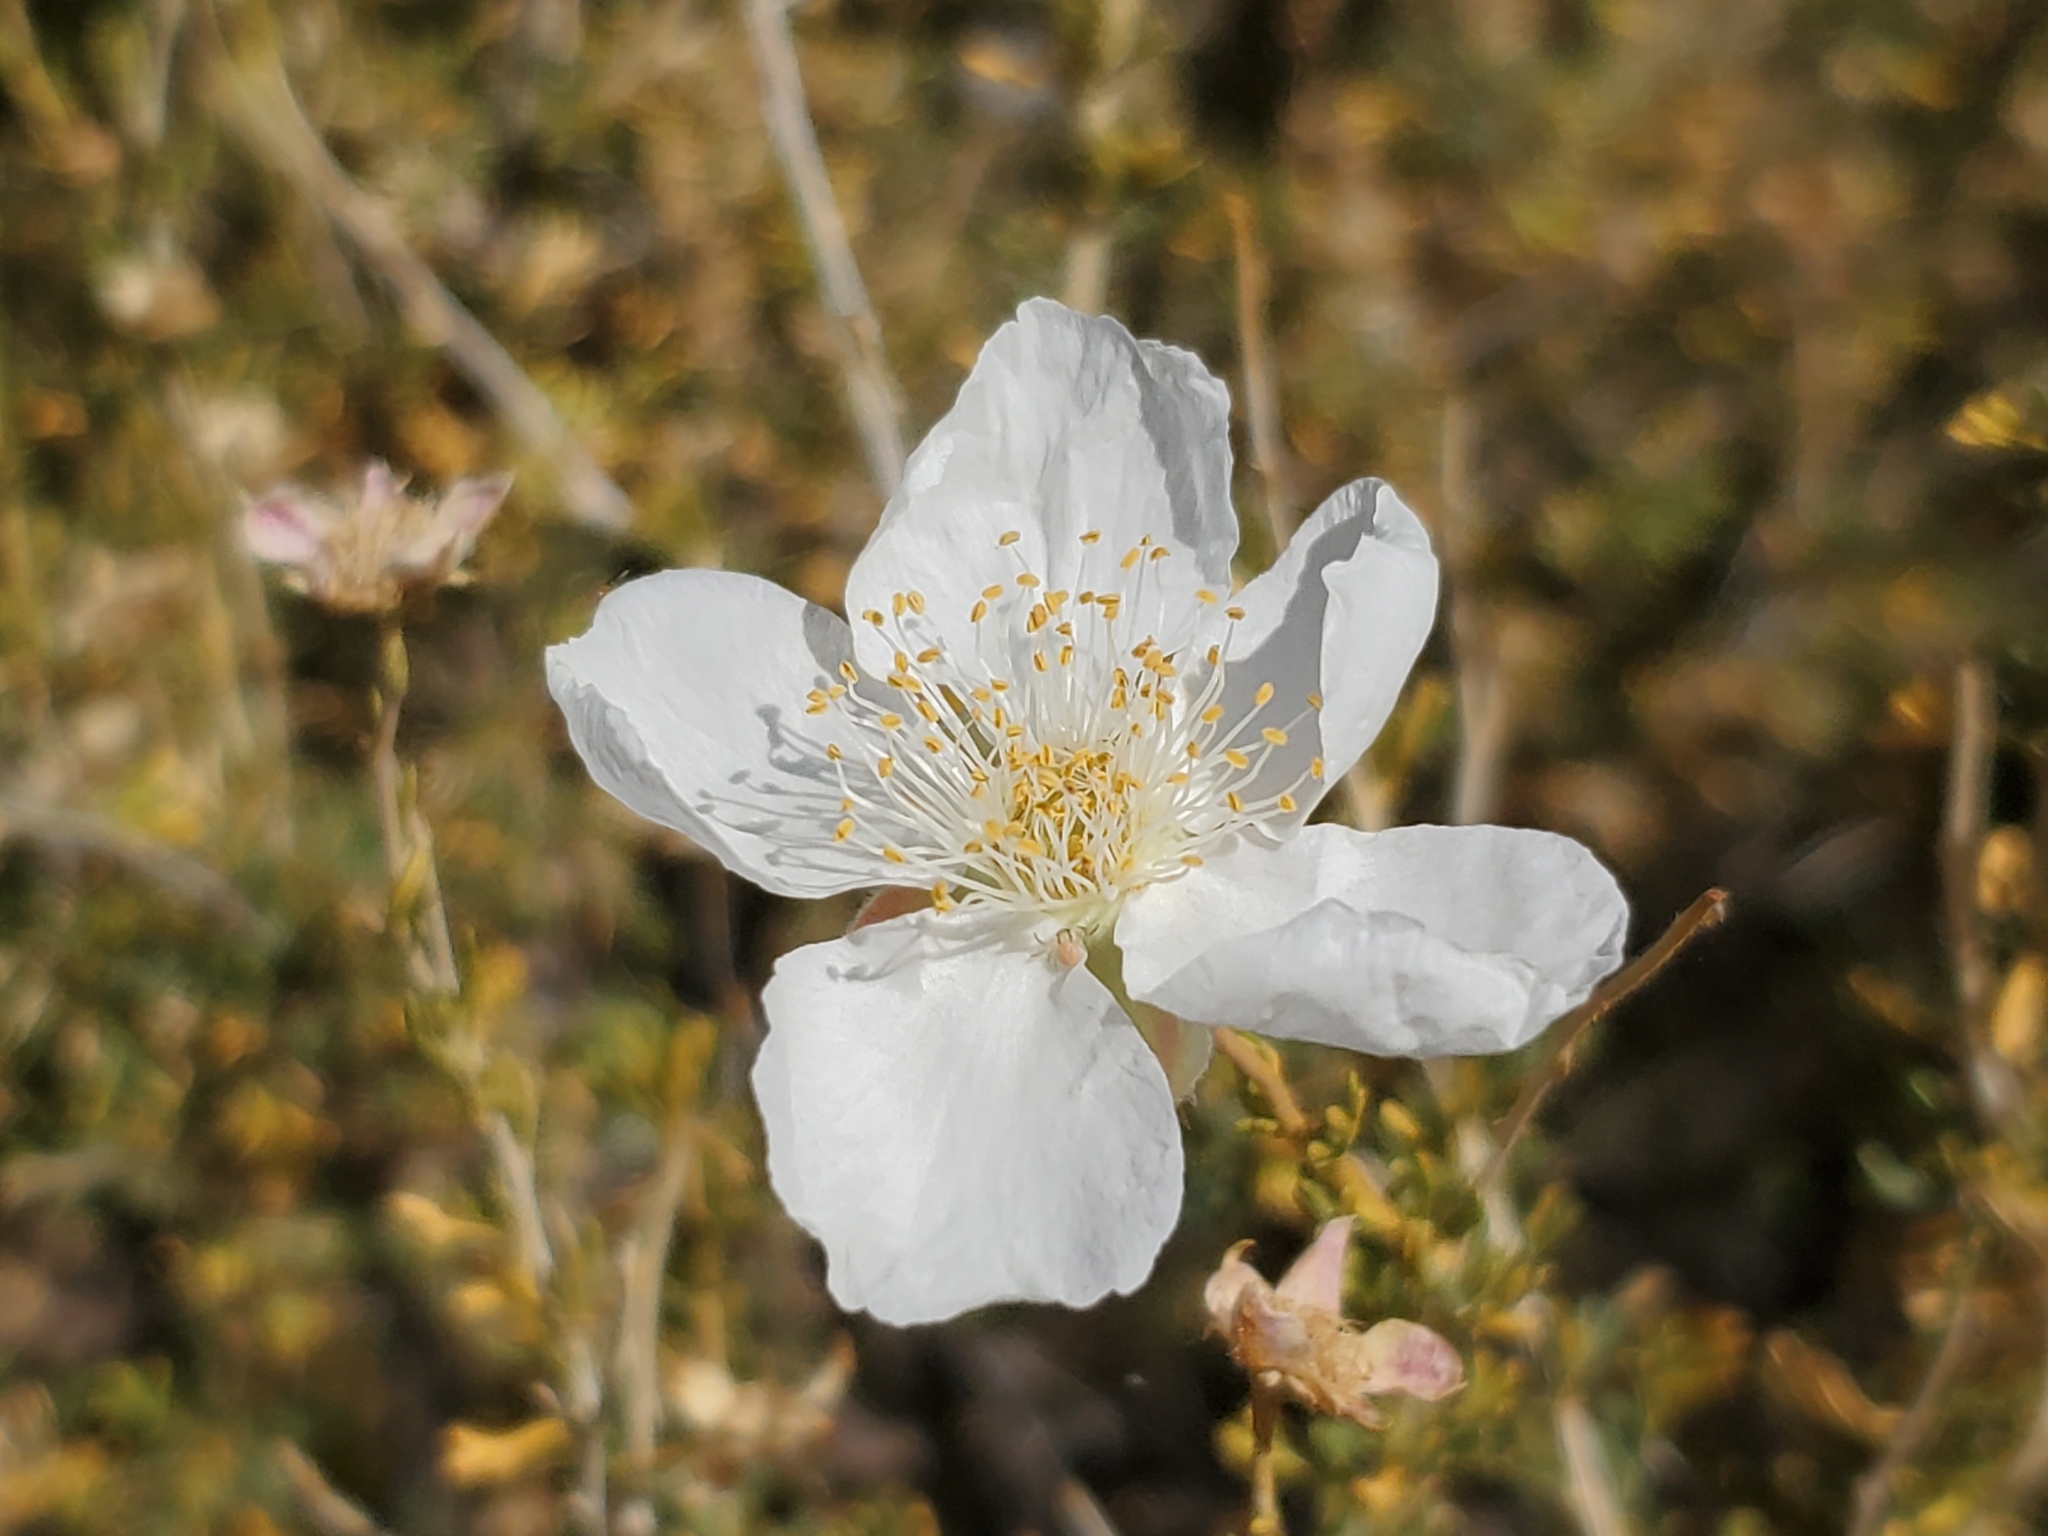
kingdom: Plantae
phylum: Tracheophyta
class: Magnoliopsida
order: Rosales
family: Rosaceae
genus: Fallugia
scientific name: Fallugia paradoxa
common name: Apache-plume
